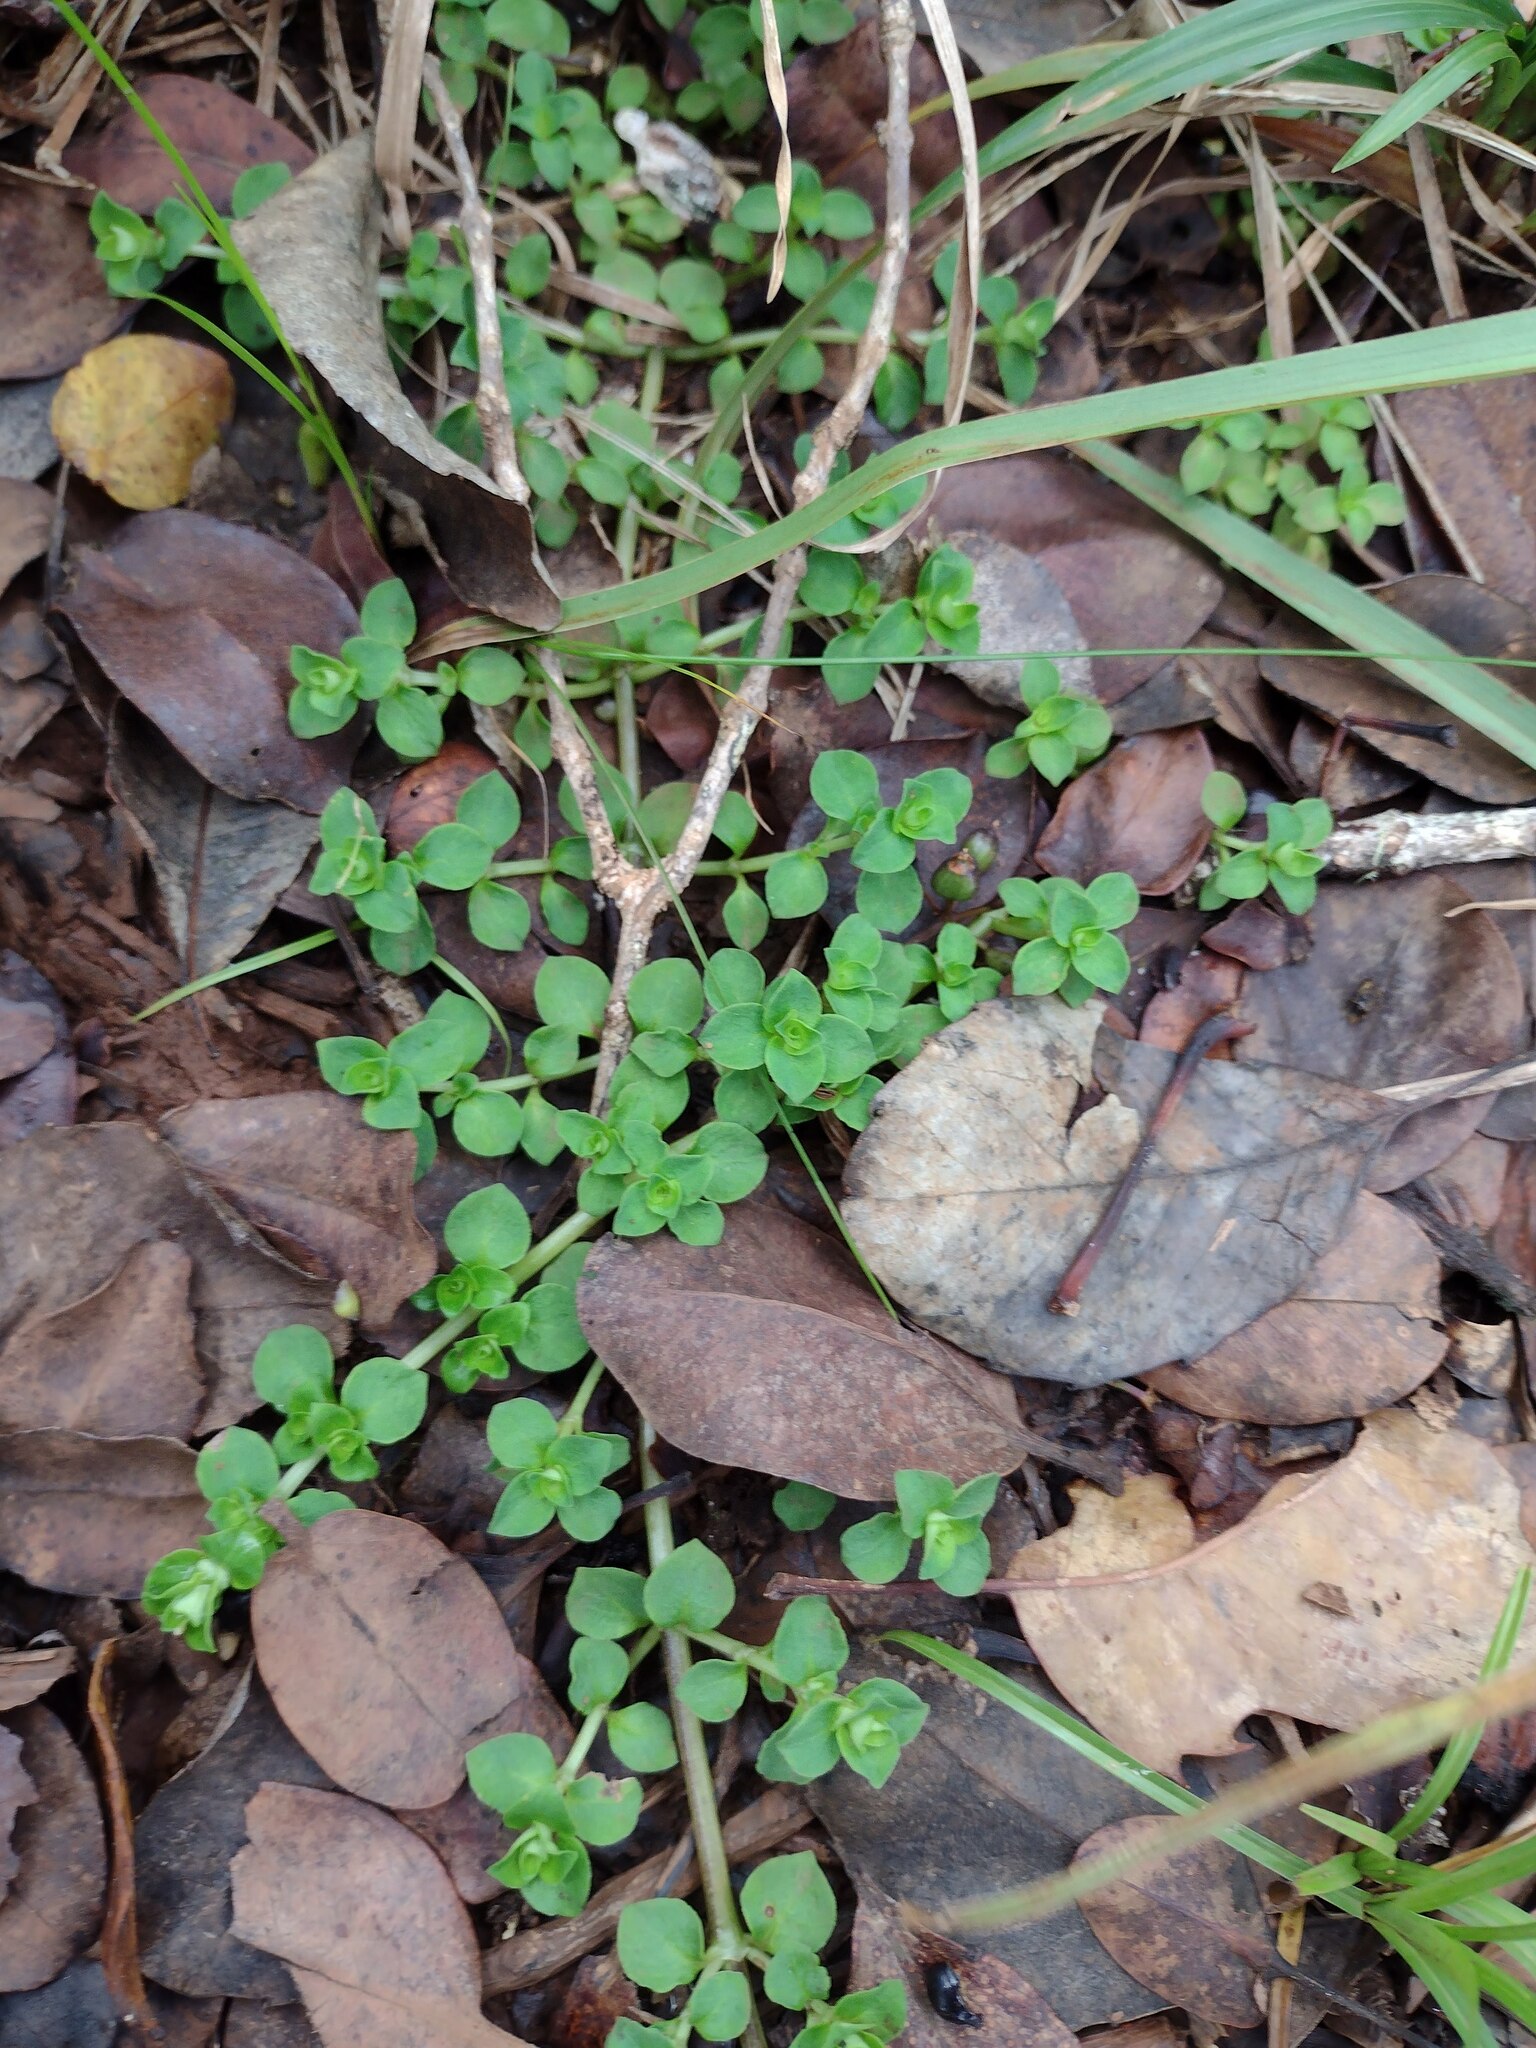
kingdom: Plantae
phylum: Tracheophyta
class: Magnoliopsida
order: Gentianales
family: Rubiaceae
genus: Nertera
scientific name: Nertera granadensis
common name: Beadplant
